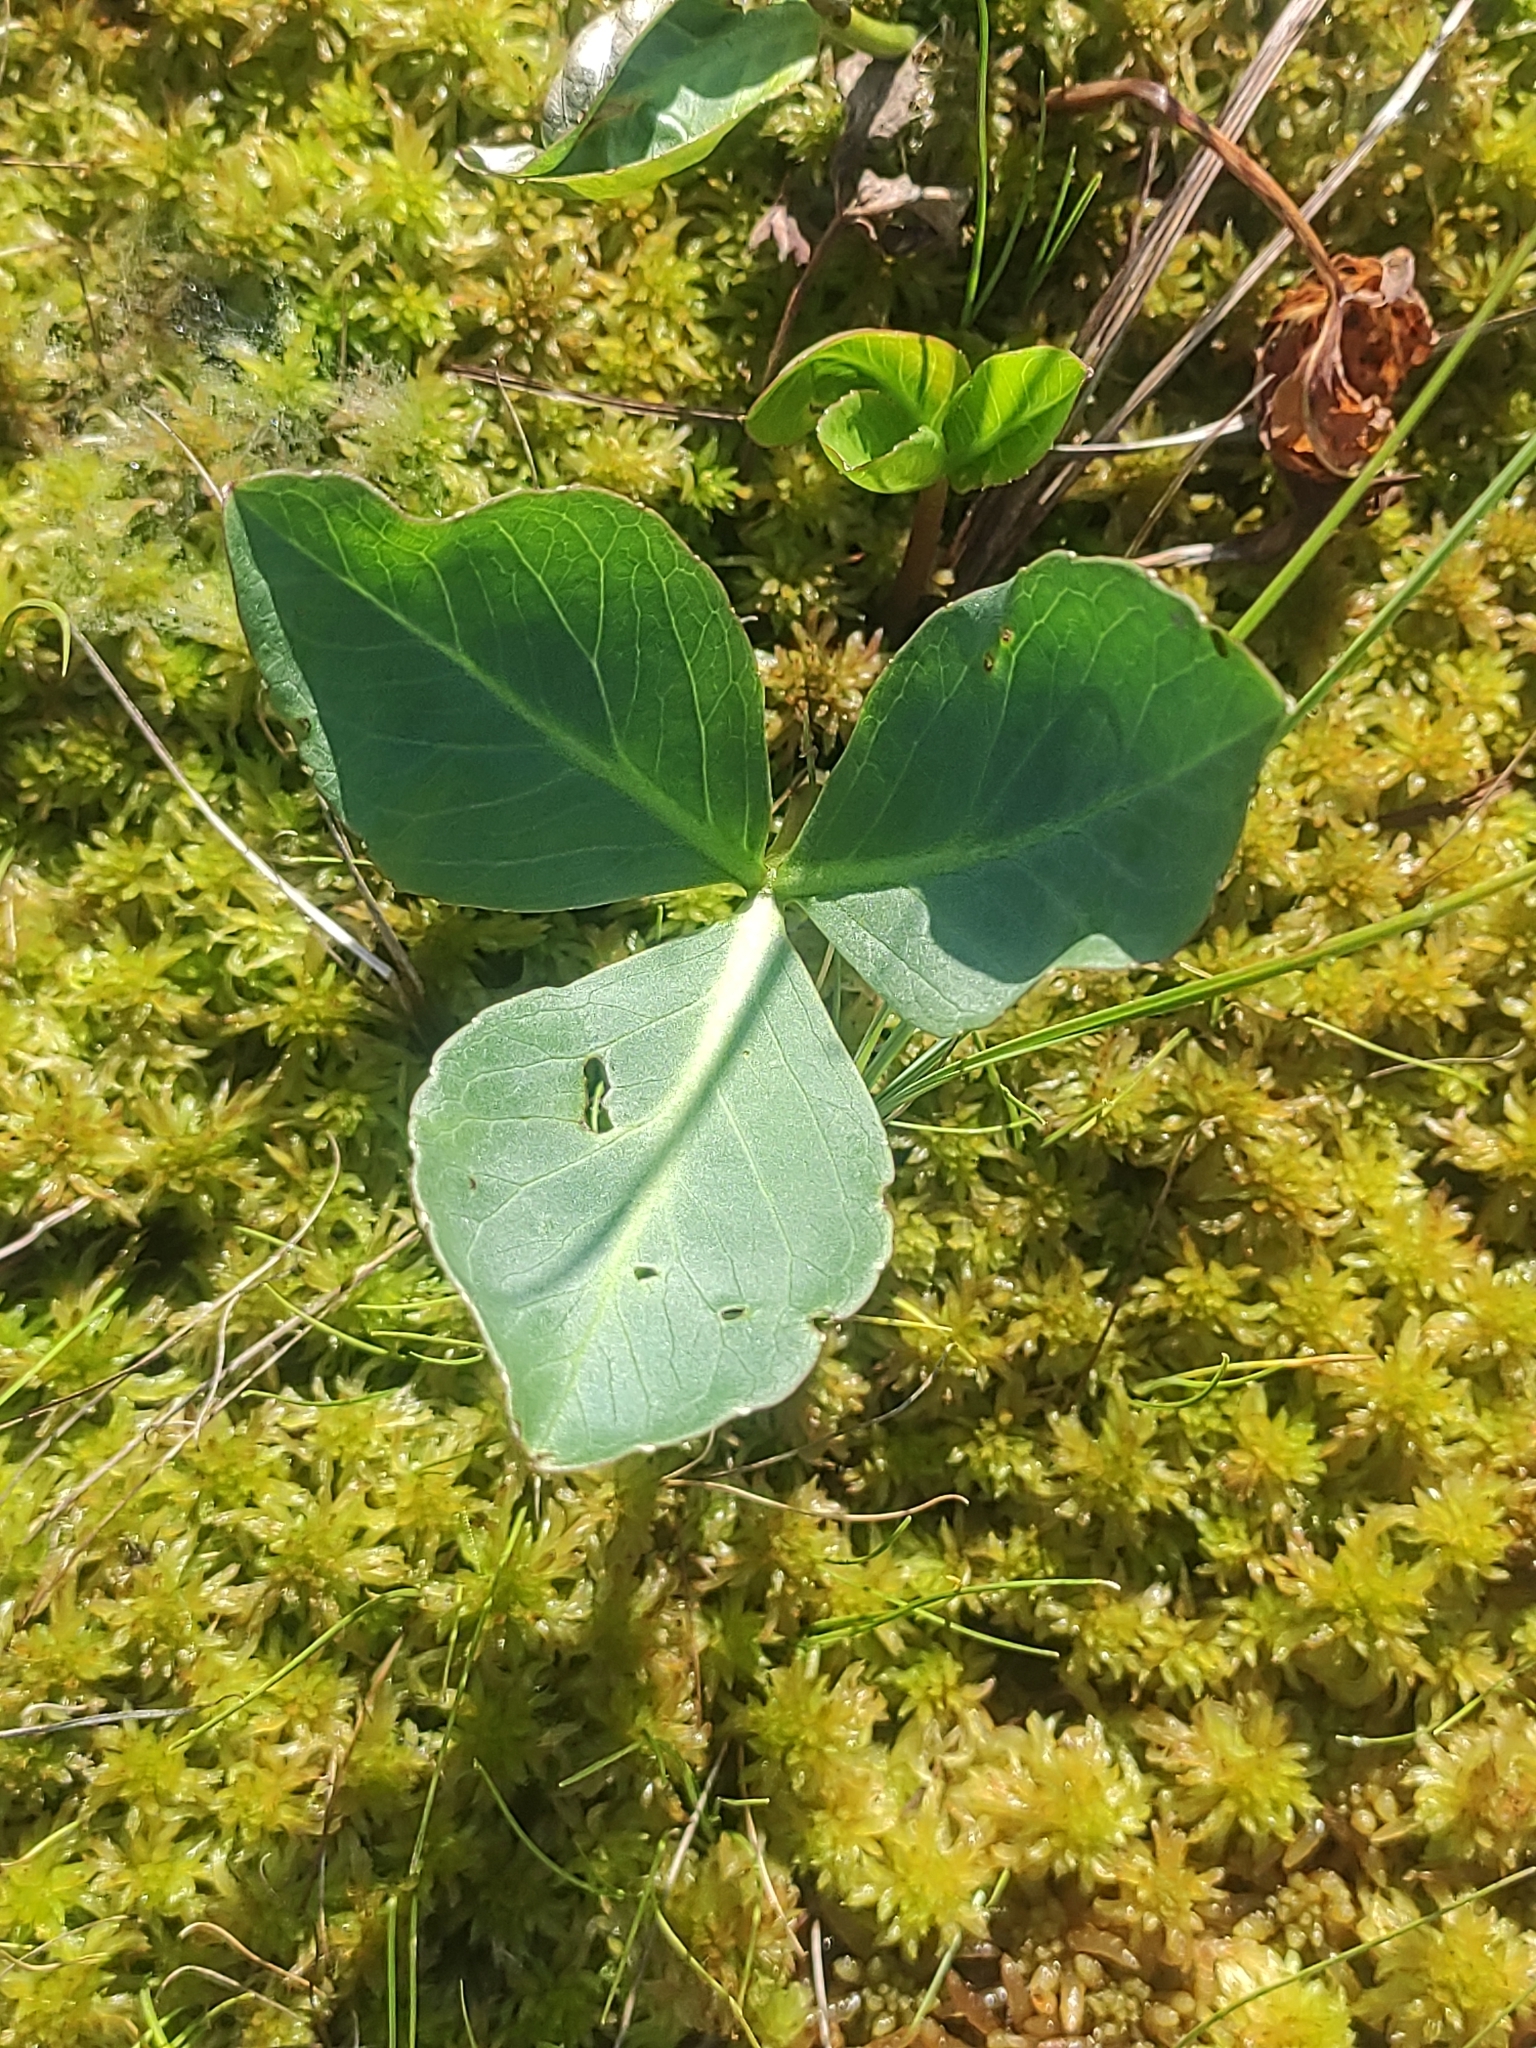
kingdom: Plantae
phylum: Tracheophyta
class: Magnoliopsida
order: Asterales
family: Menyanthaceae
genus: Menyanthes
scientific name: Menyanthes trifoliata
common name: Bogbean
